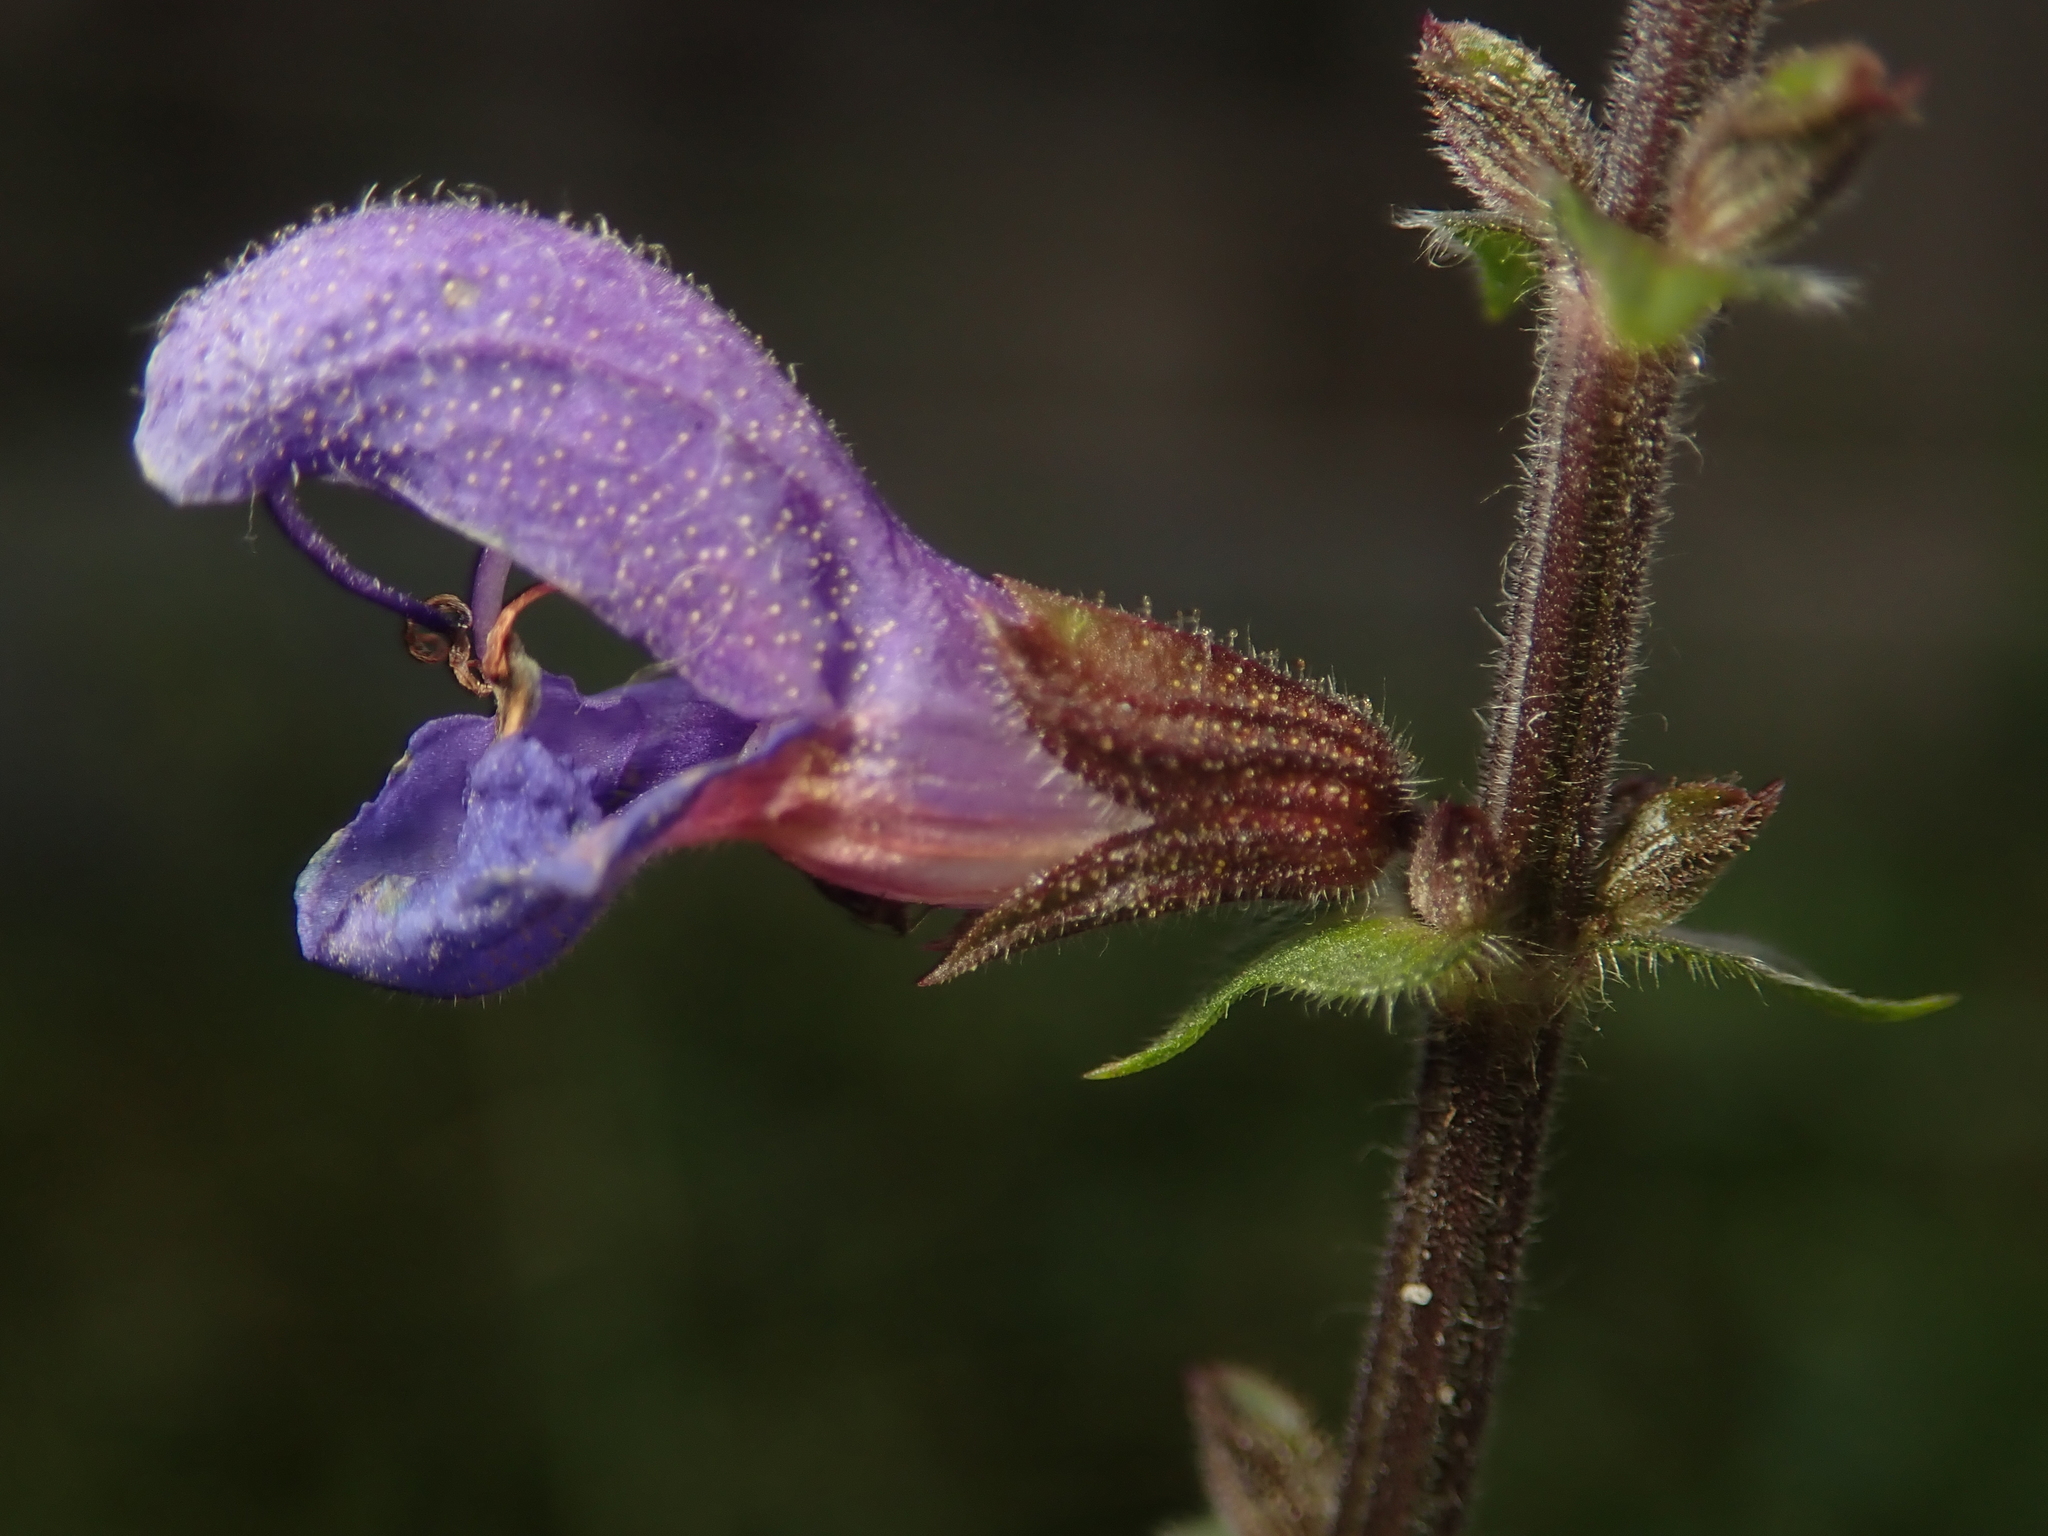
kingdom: Plantae
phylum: Tracheophyta
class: Magnoliopsida
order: Lamiales
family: Lamiaceae
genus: Salvia
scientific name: Salvia pratensis
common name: Meadow sage
